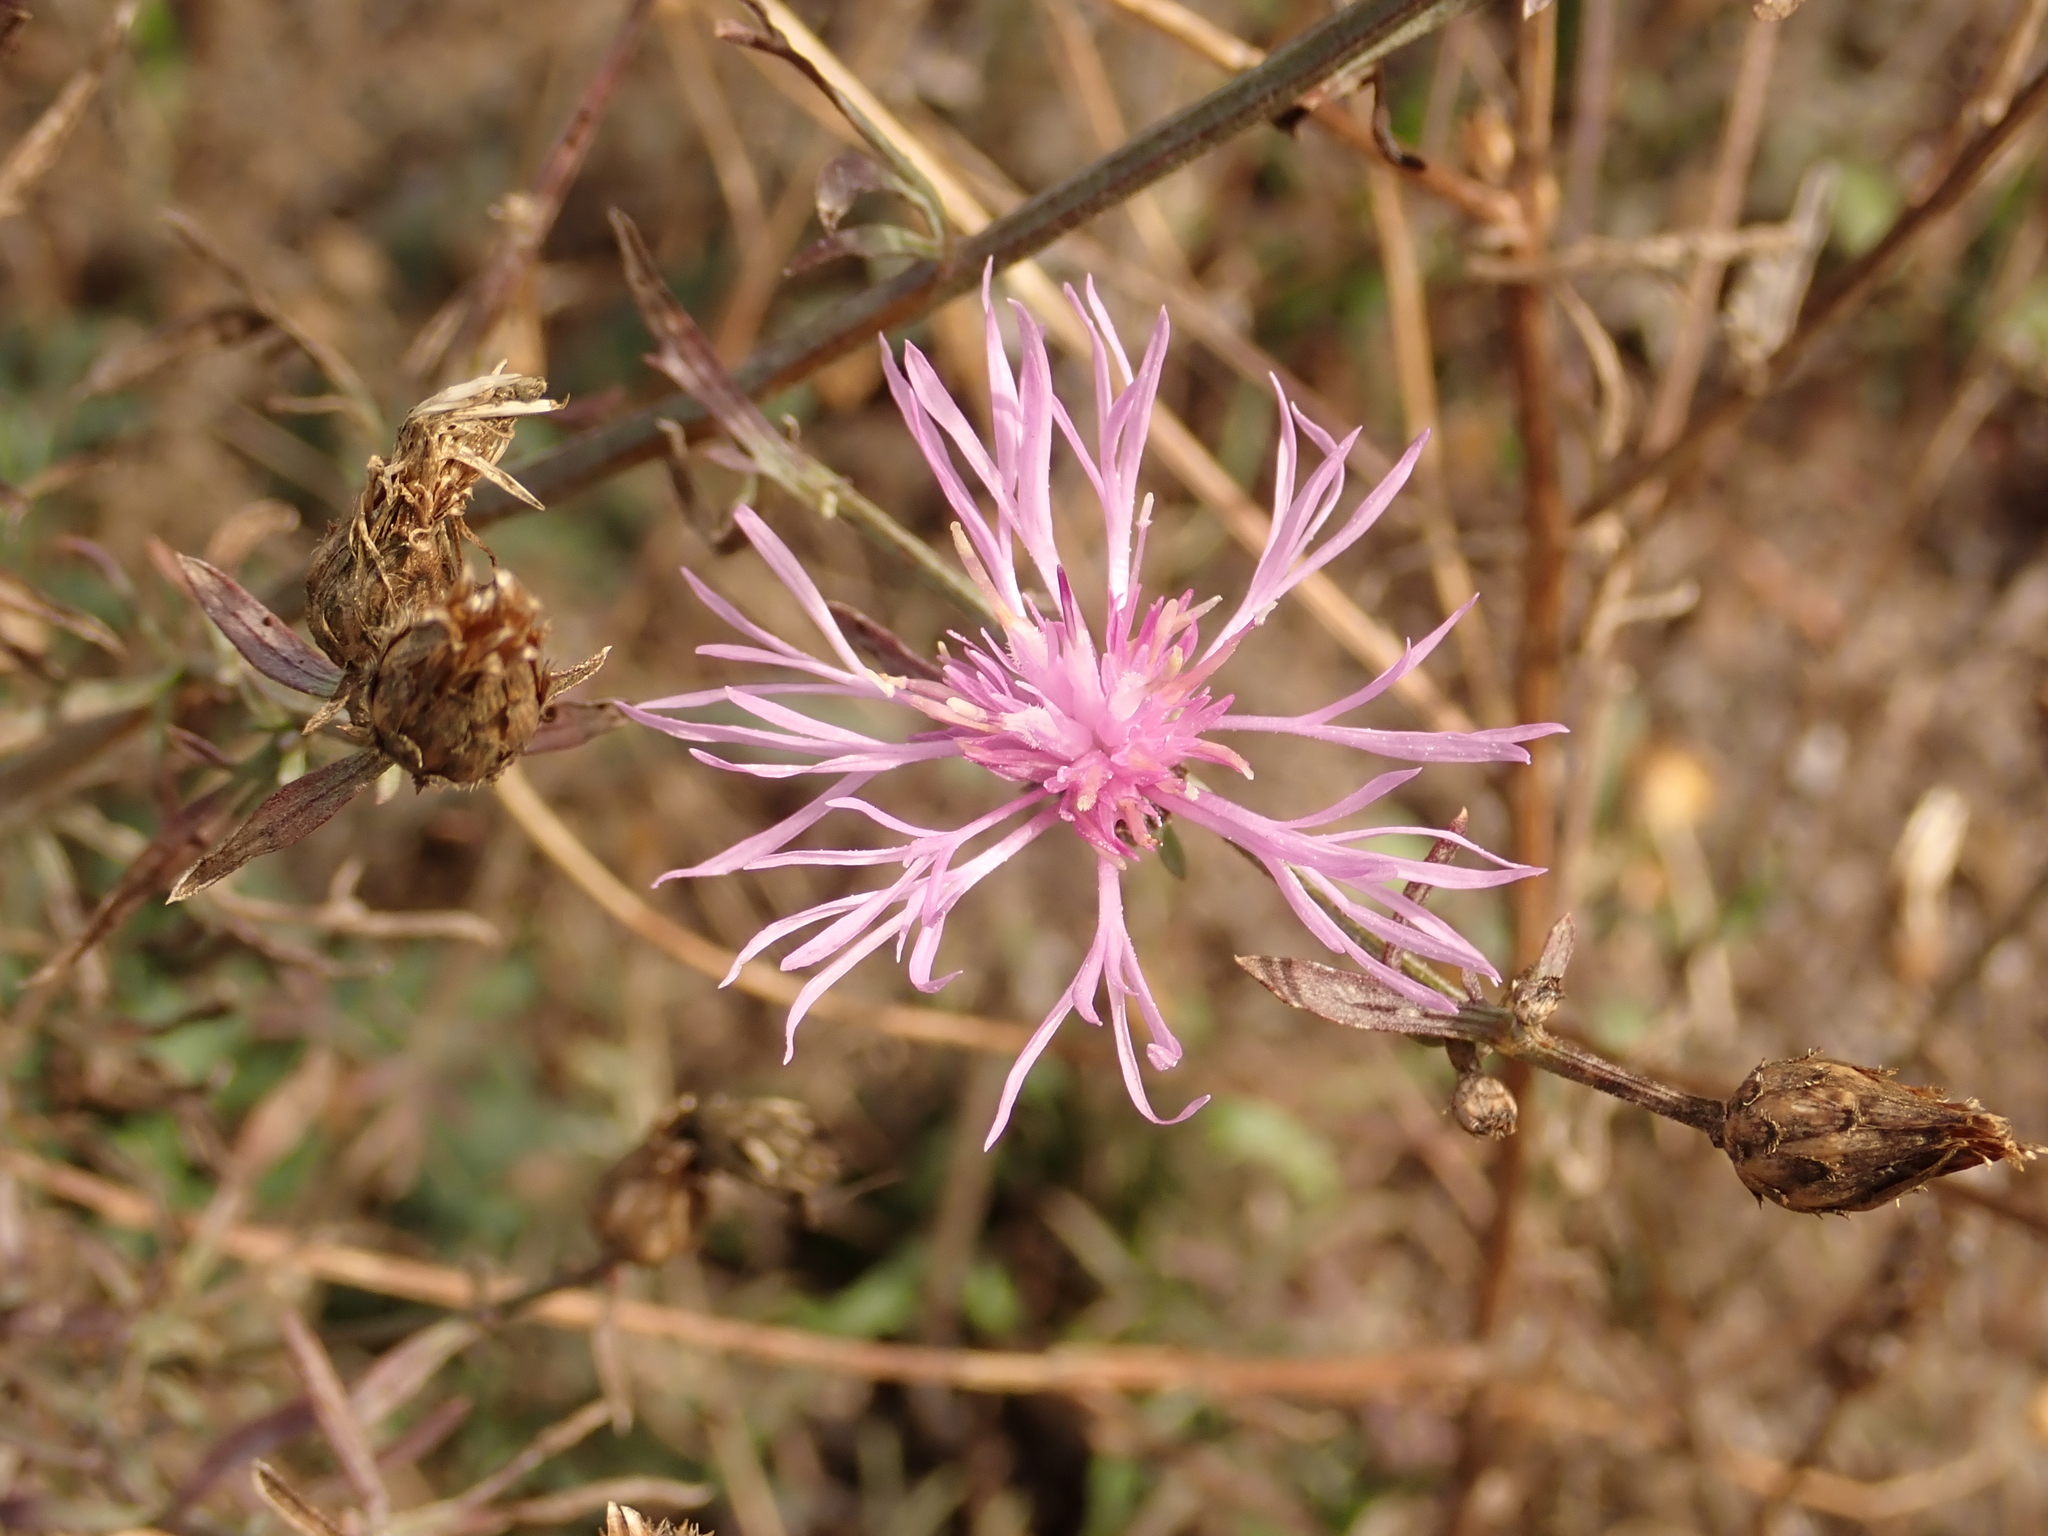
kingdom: Plantae
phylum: Tracheophyta
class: Magnoliopsida
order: Asterales
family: Asteraceae
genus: Centaurea
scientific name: Centaurea stoebe
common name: Spotted knapweed
